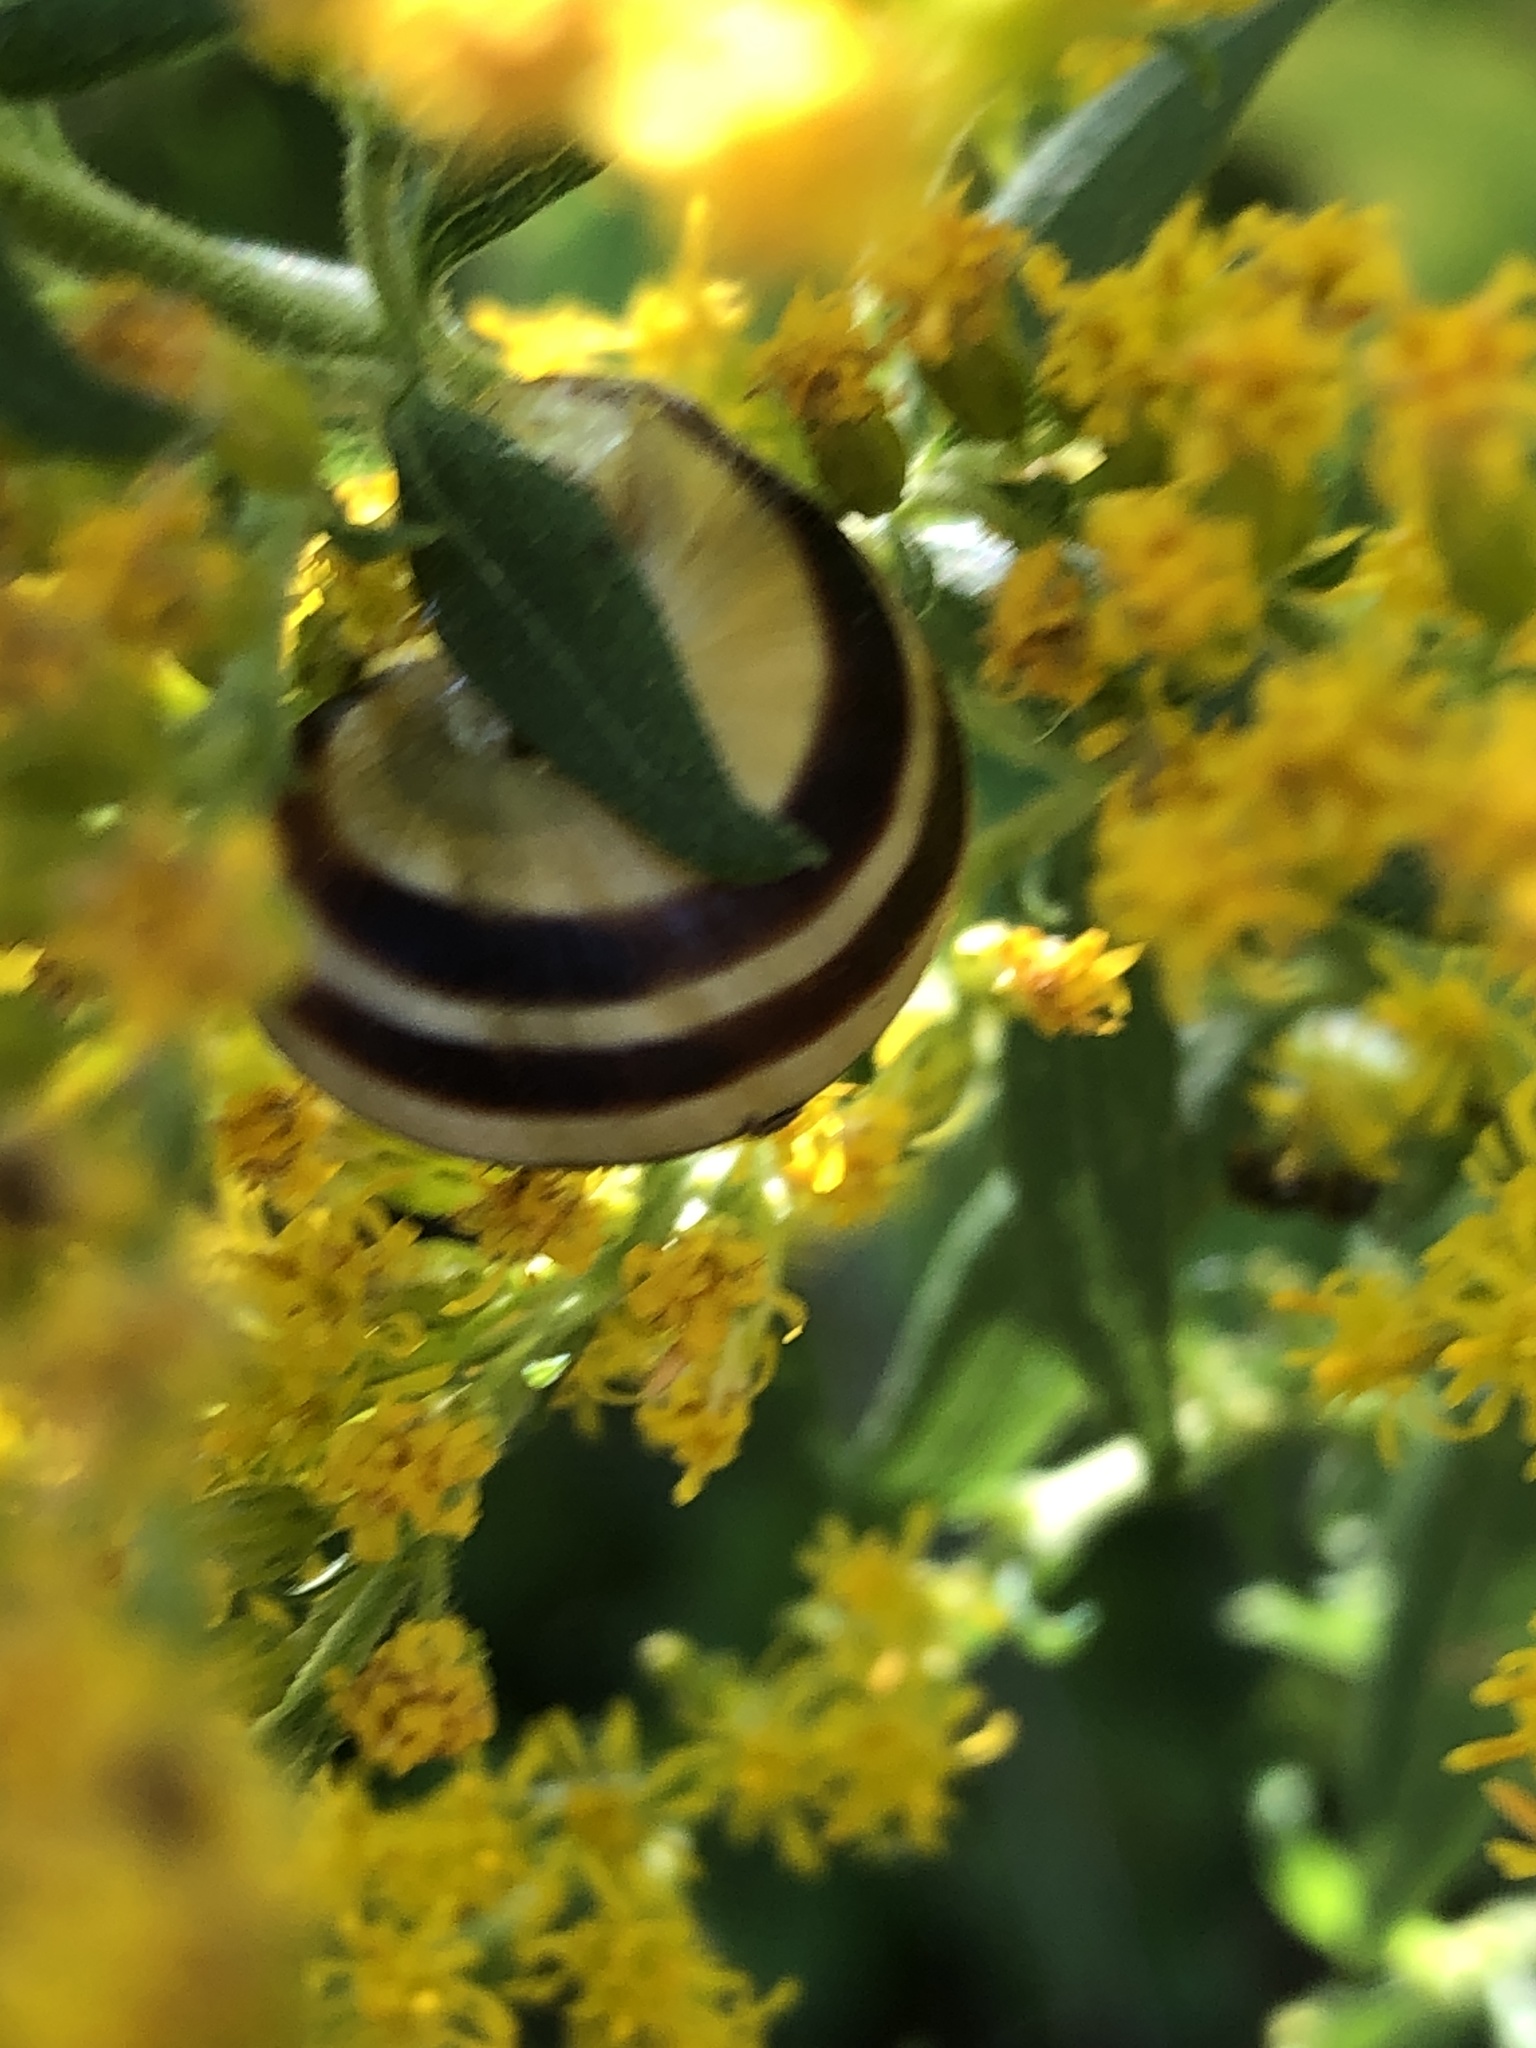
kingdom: Animalia
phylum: Mollusca
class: Gastropoda
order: Stylommatophora
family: Helicidae
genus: Cepaea
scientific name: Cepaea nemoralis
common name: Grovesnail
